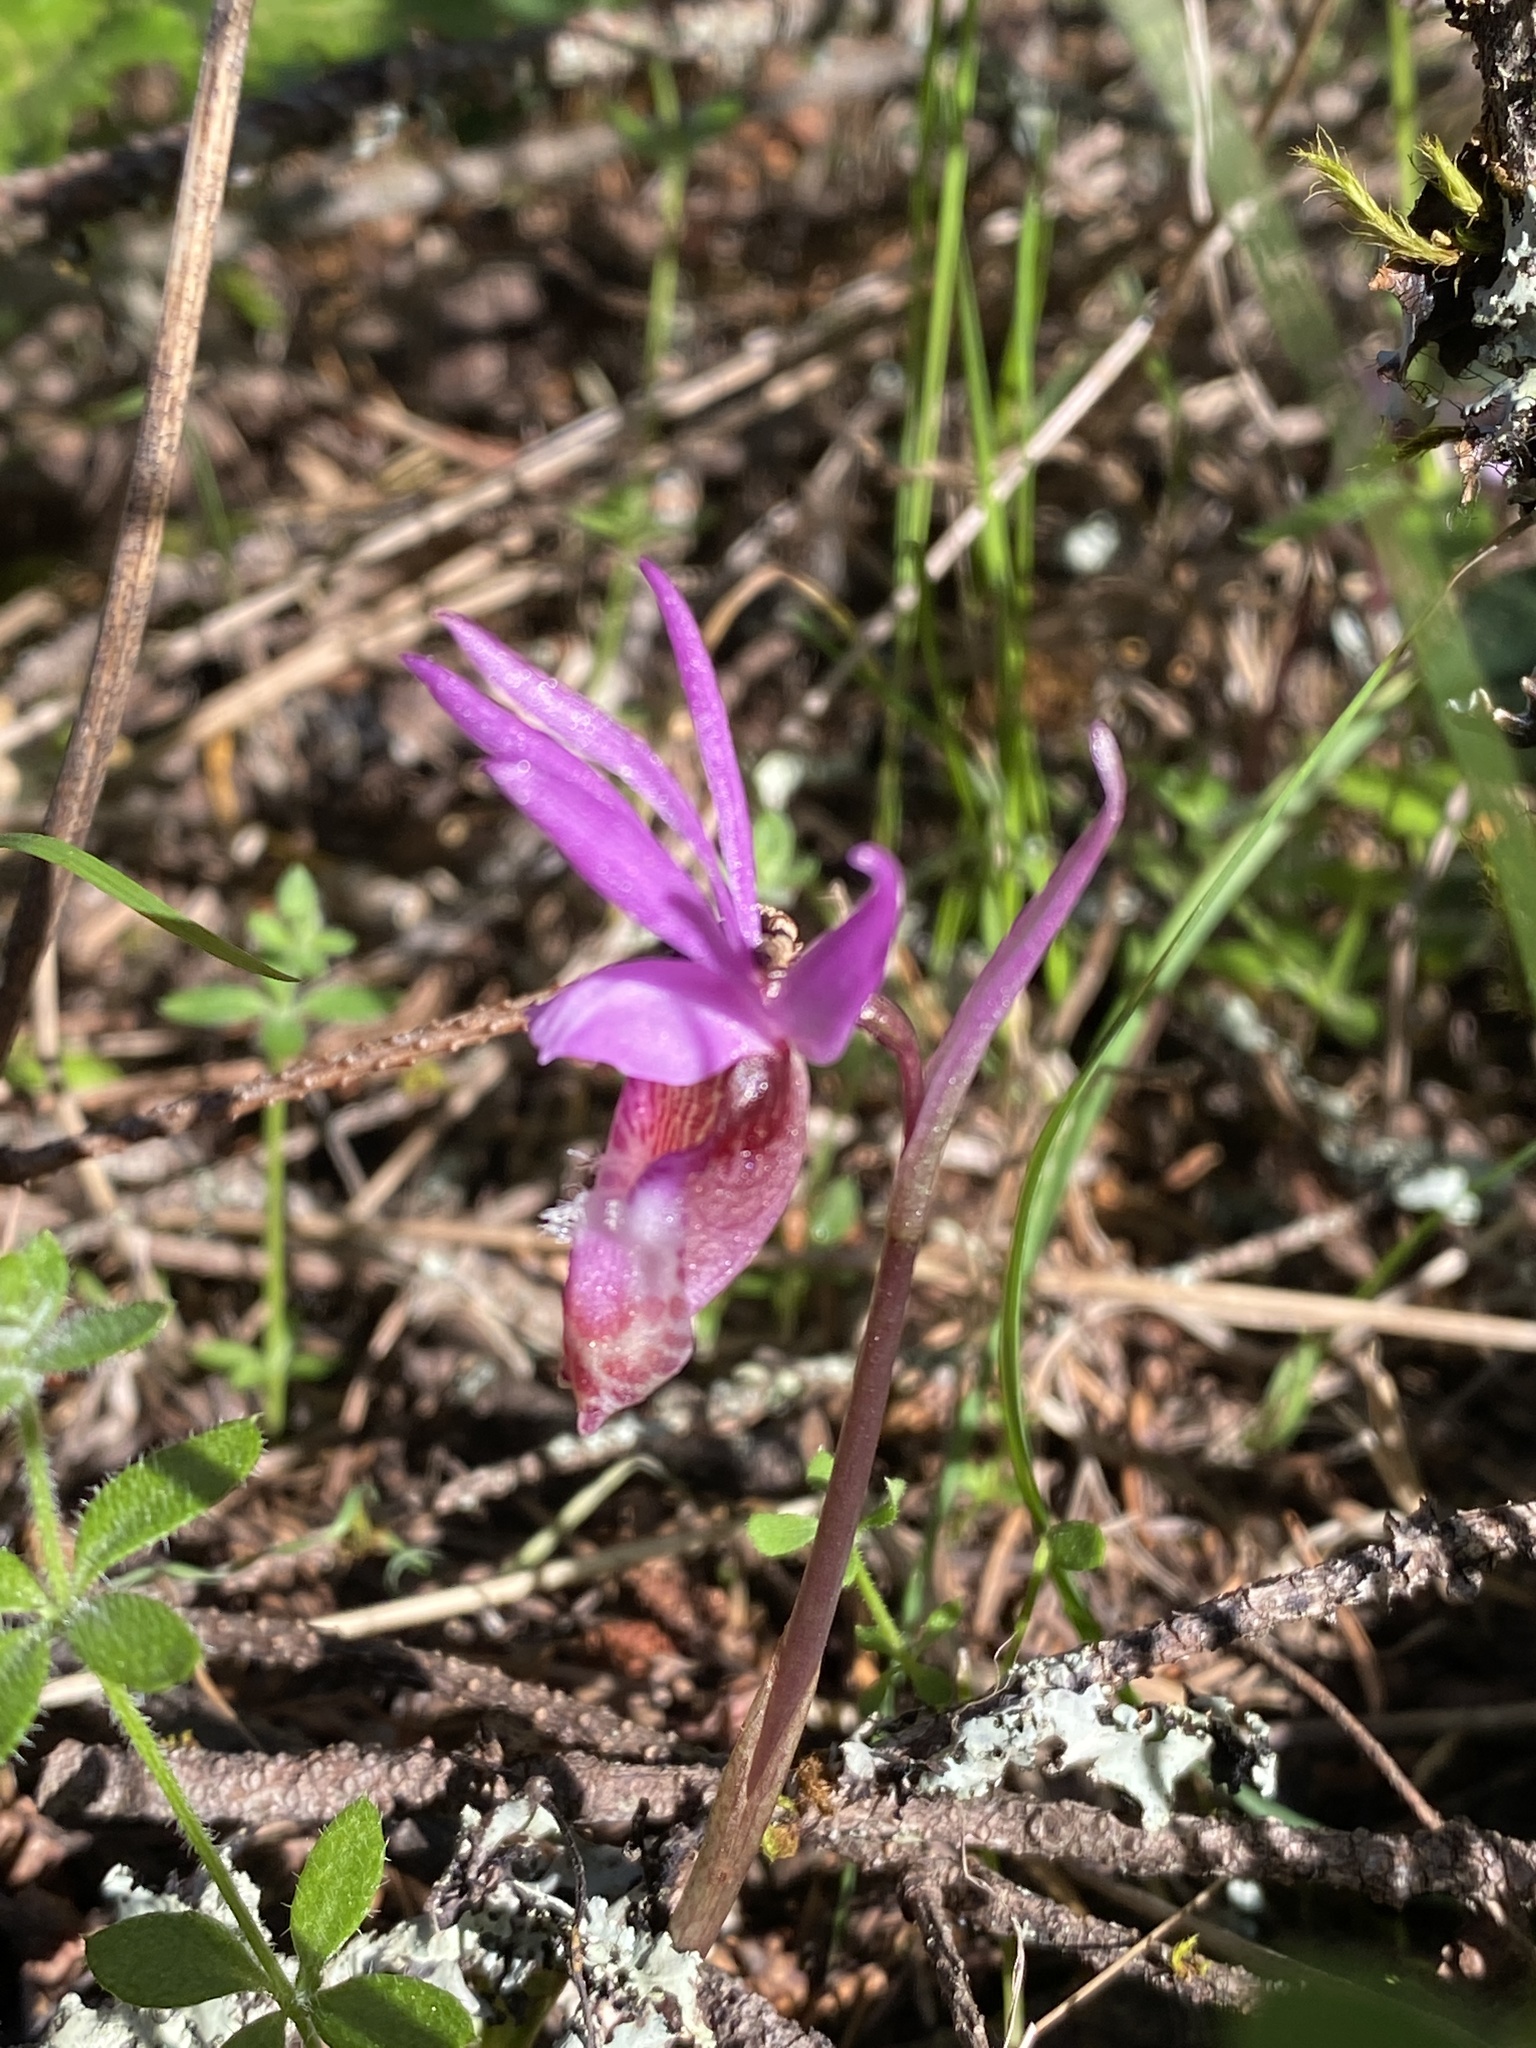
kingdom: Plantae
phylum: Tracheophyta
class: Liliopsida
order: Asparagales
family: Orchidaceae
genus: Calypso
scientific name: Calypso bulbosa
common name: Calypso
